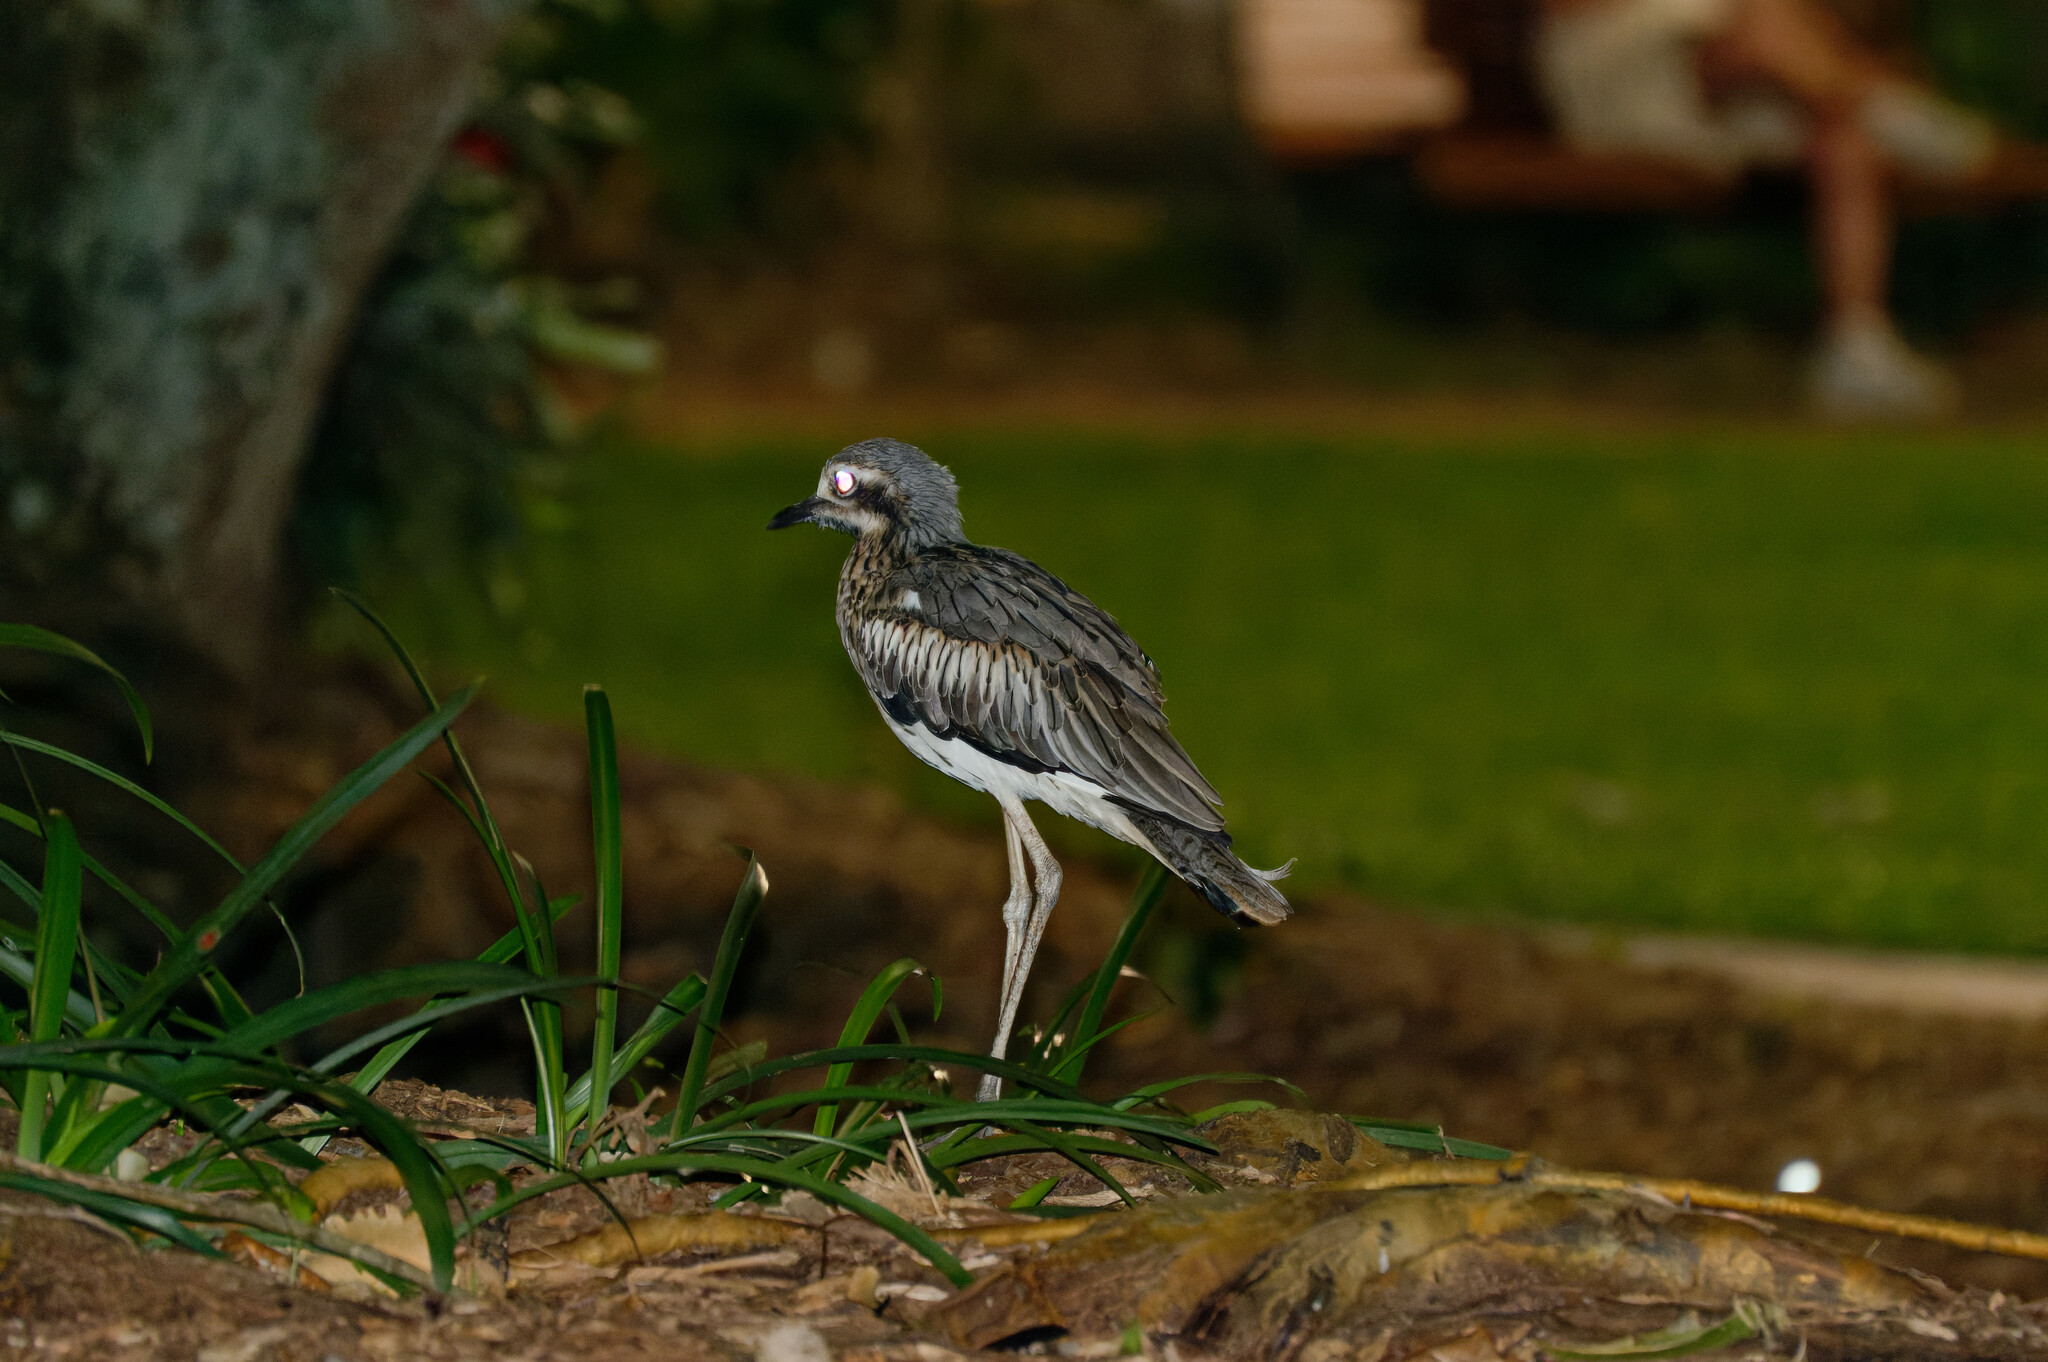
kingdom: Animalia
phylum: Chordata
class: Aves
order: Charadriiformes
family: Burhinidae
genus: Burhinus
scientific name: Burhinus grallarius
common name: Bush stone-curlew
